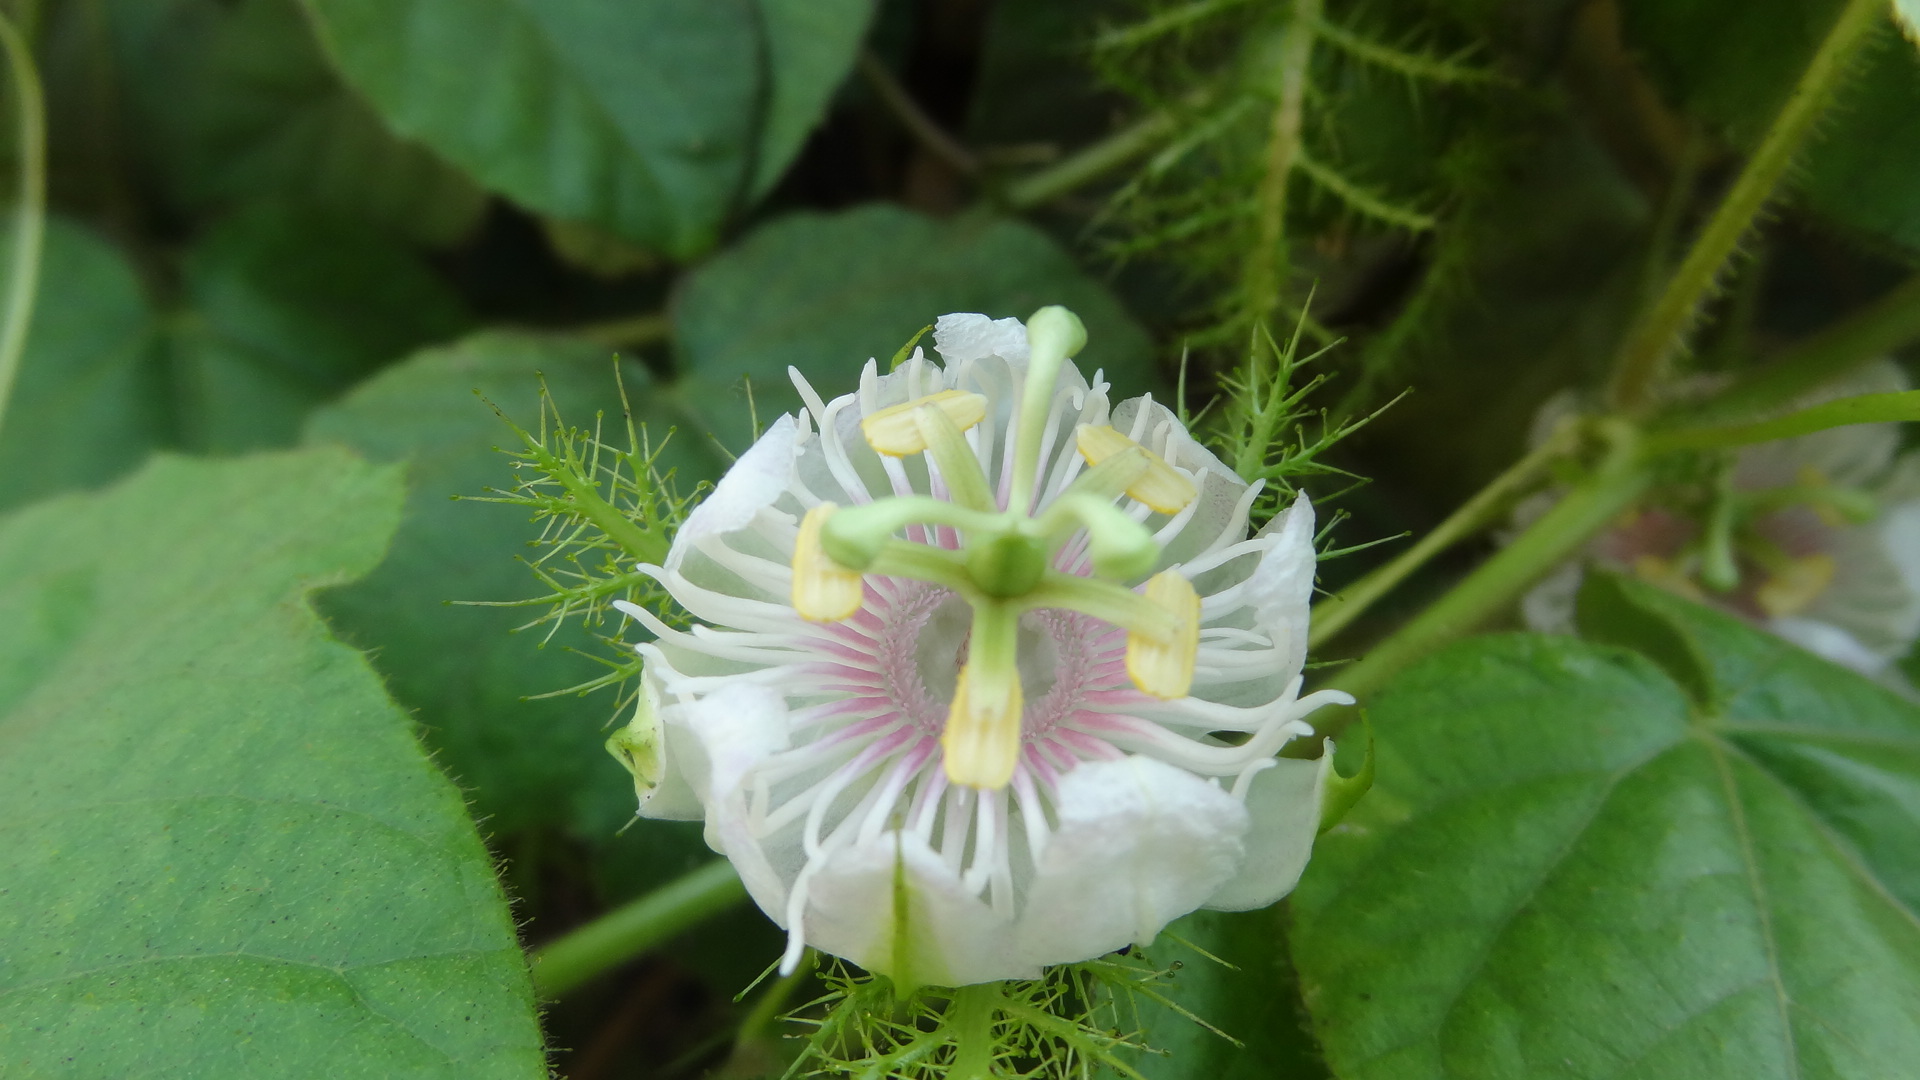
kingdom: Plantae
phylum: Tracheophyta
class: Magnoliopsida
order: Malpighiales
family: Passifloraceae
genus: Passiflora
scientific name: Passiflora foetida
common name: Fetid passionflower
